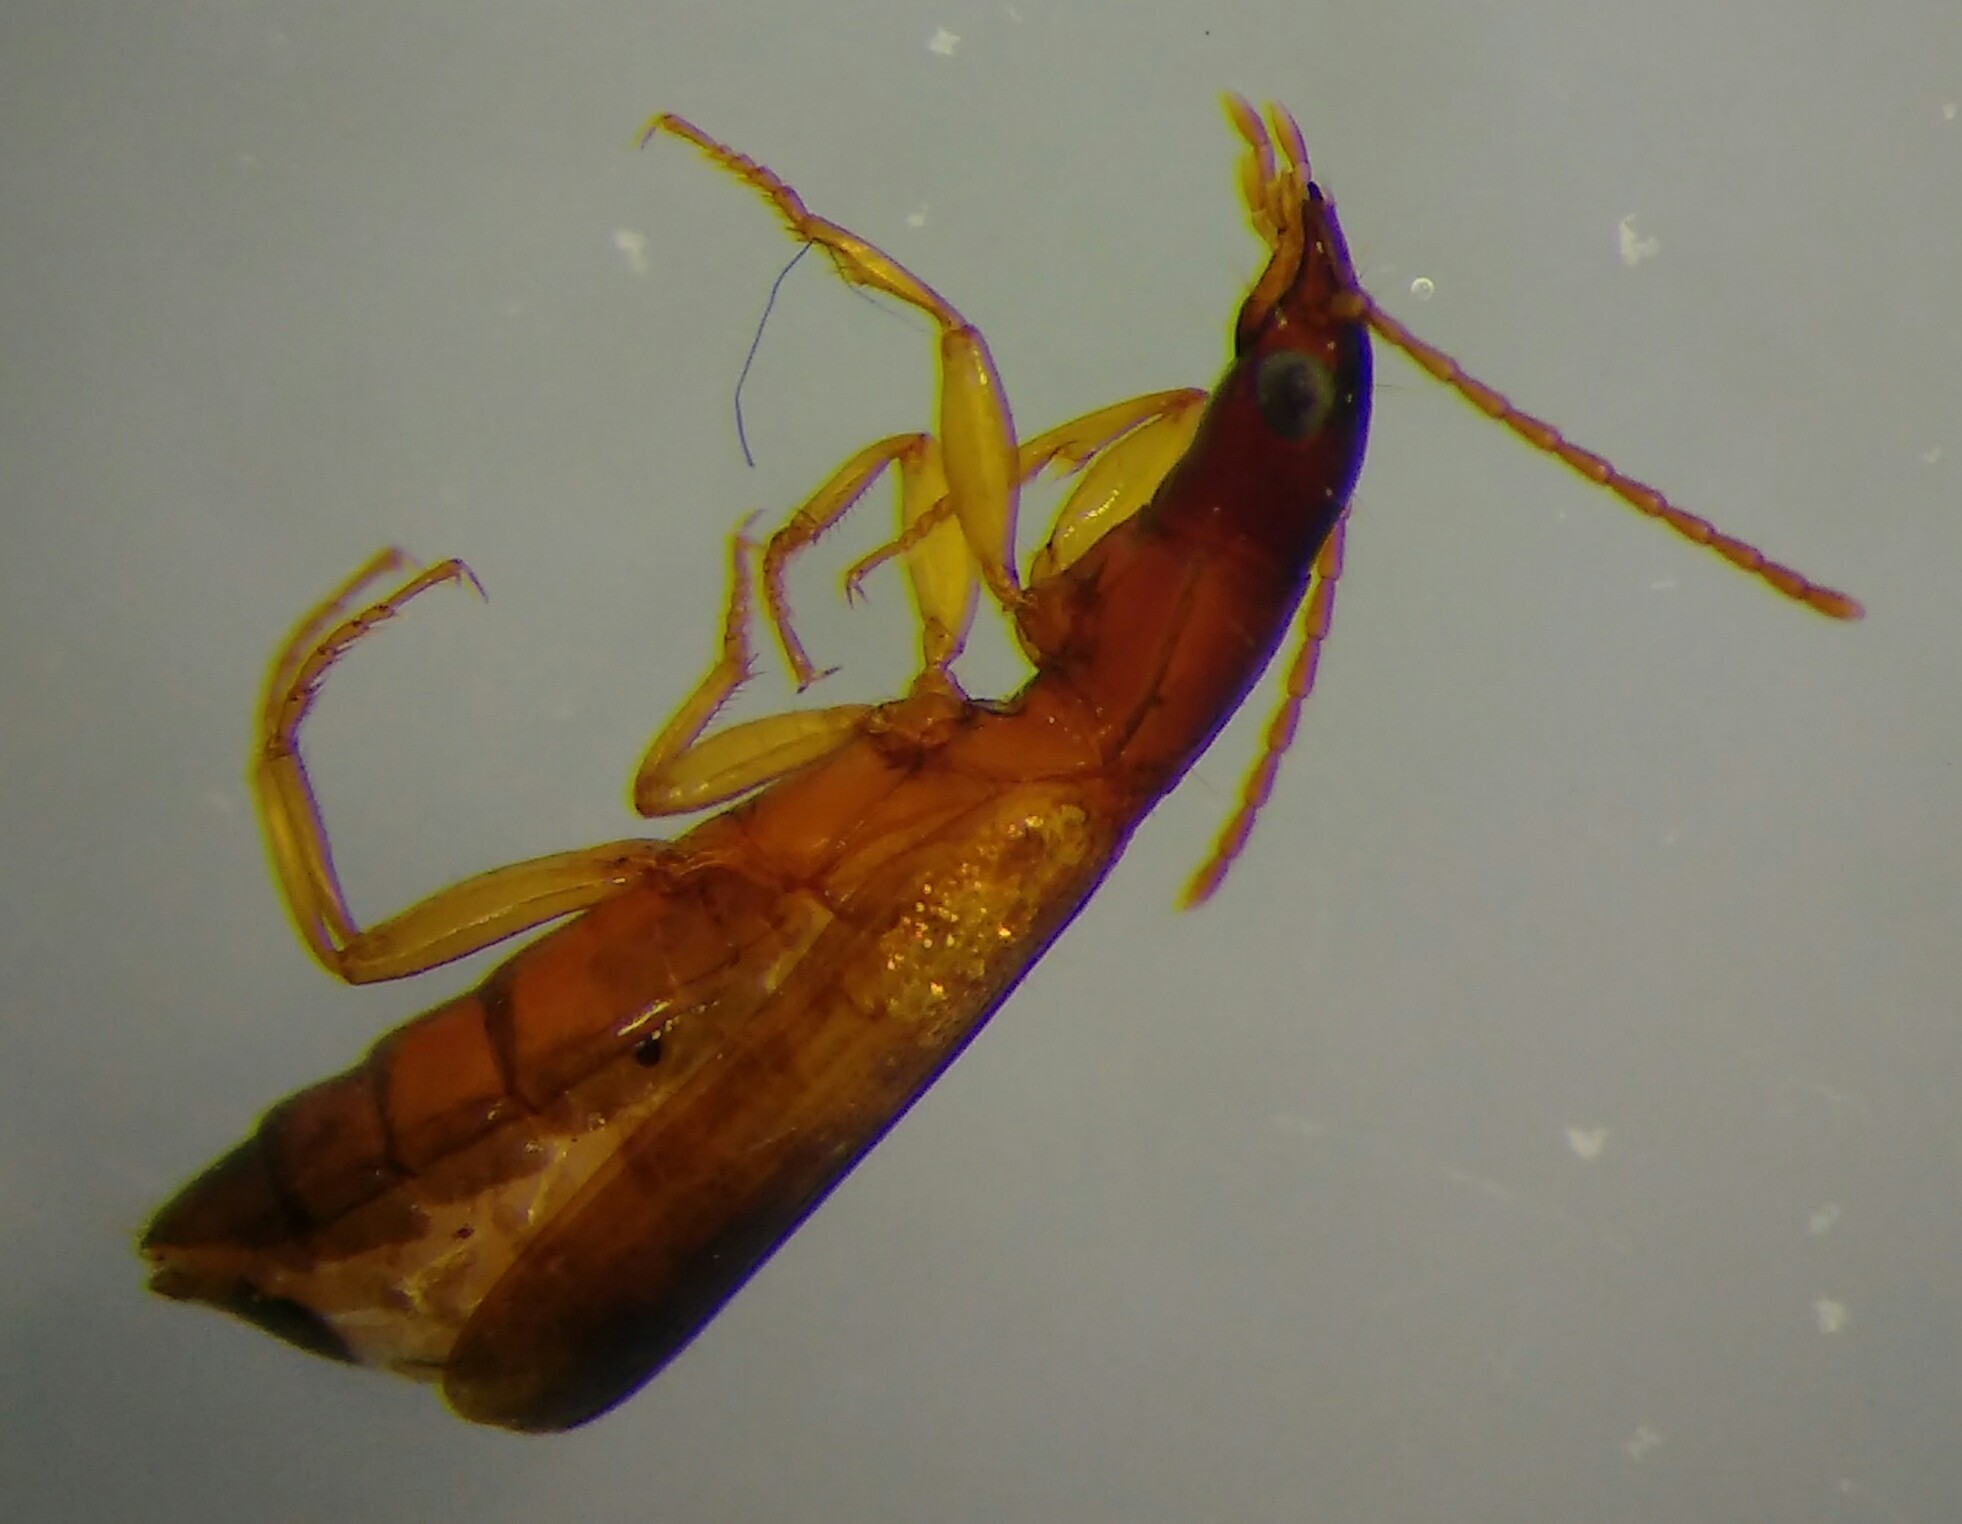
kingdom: Animalia
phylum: Arthropoda
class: Insecta
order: Coleoptera
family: Carabidae
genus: Paradromius
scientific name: Paradromius linearis
